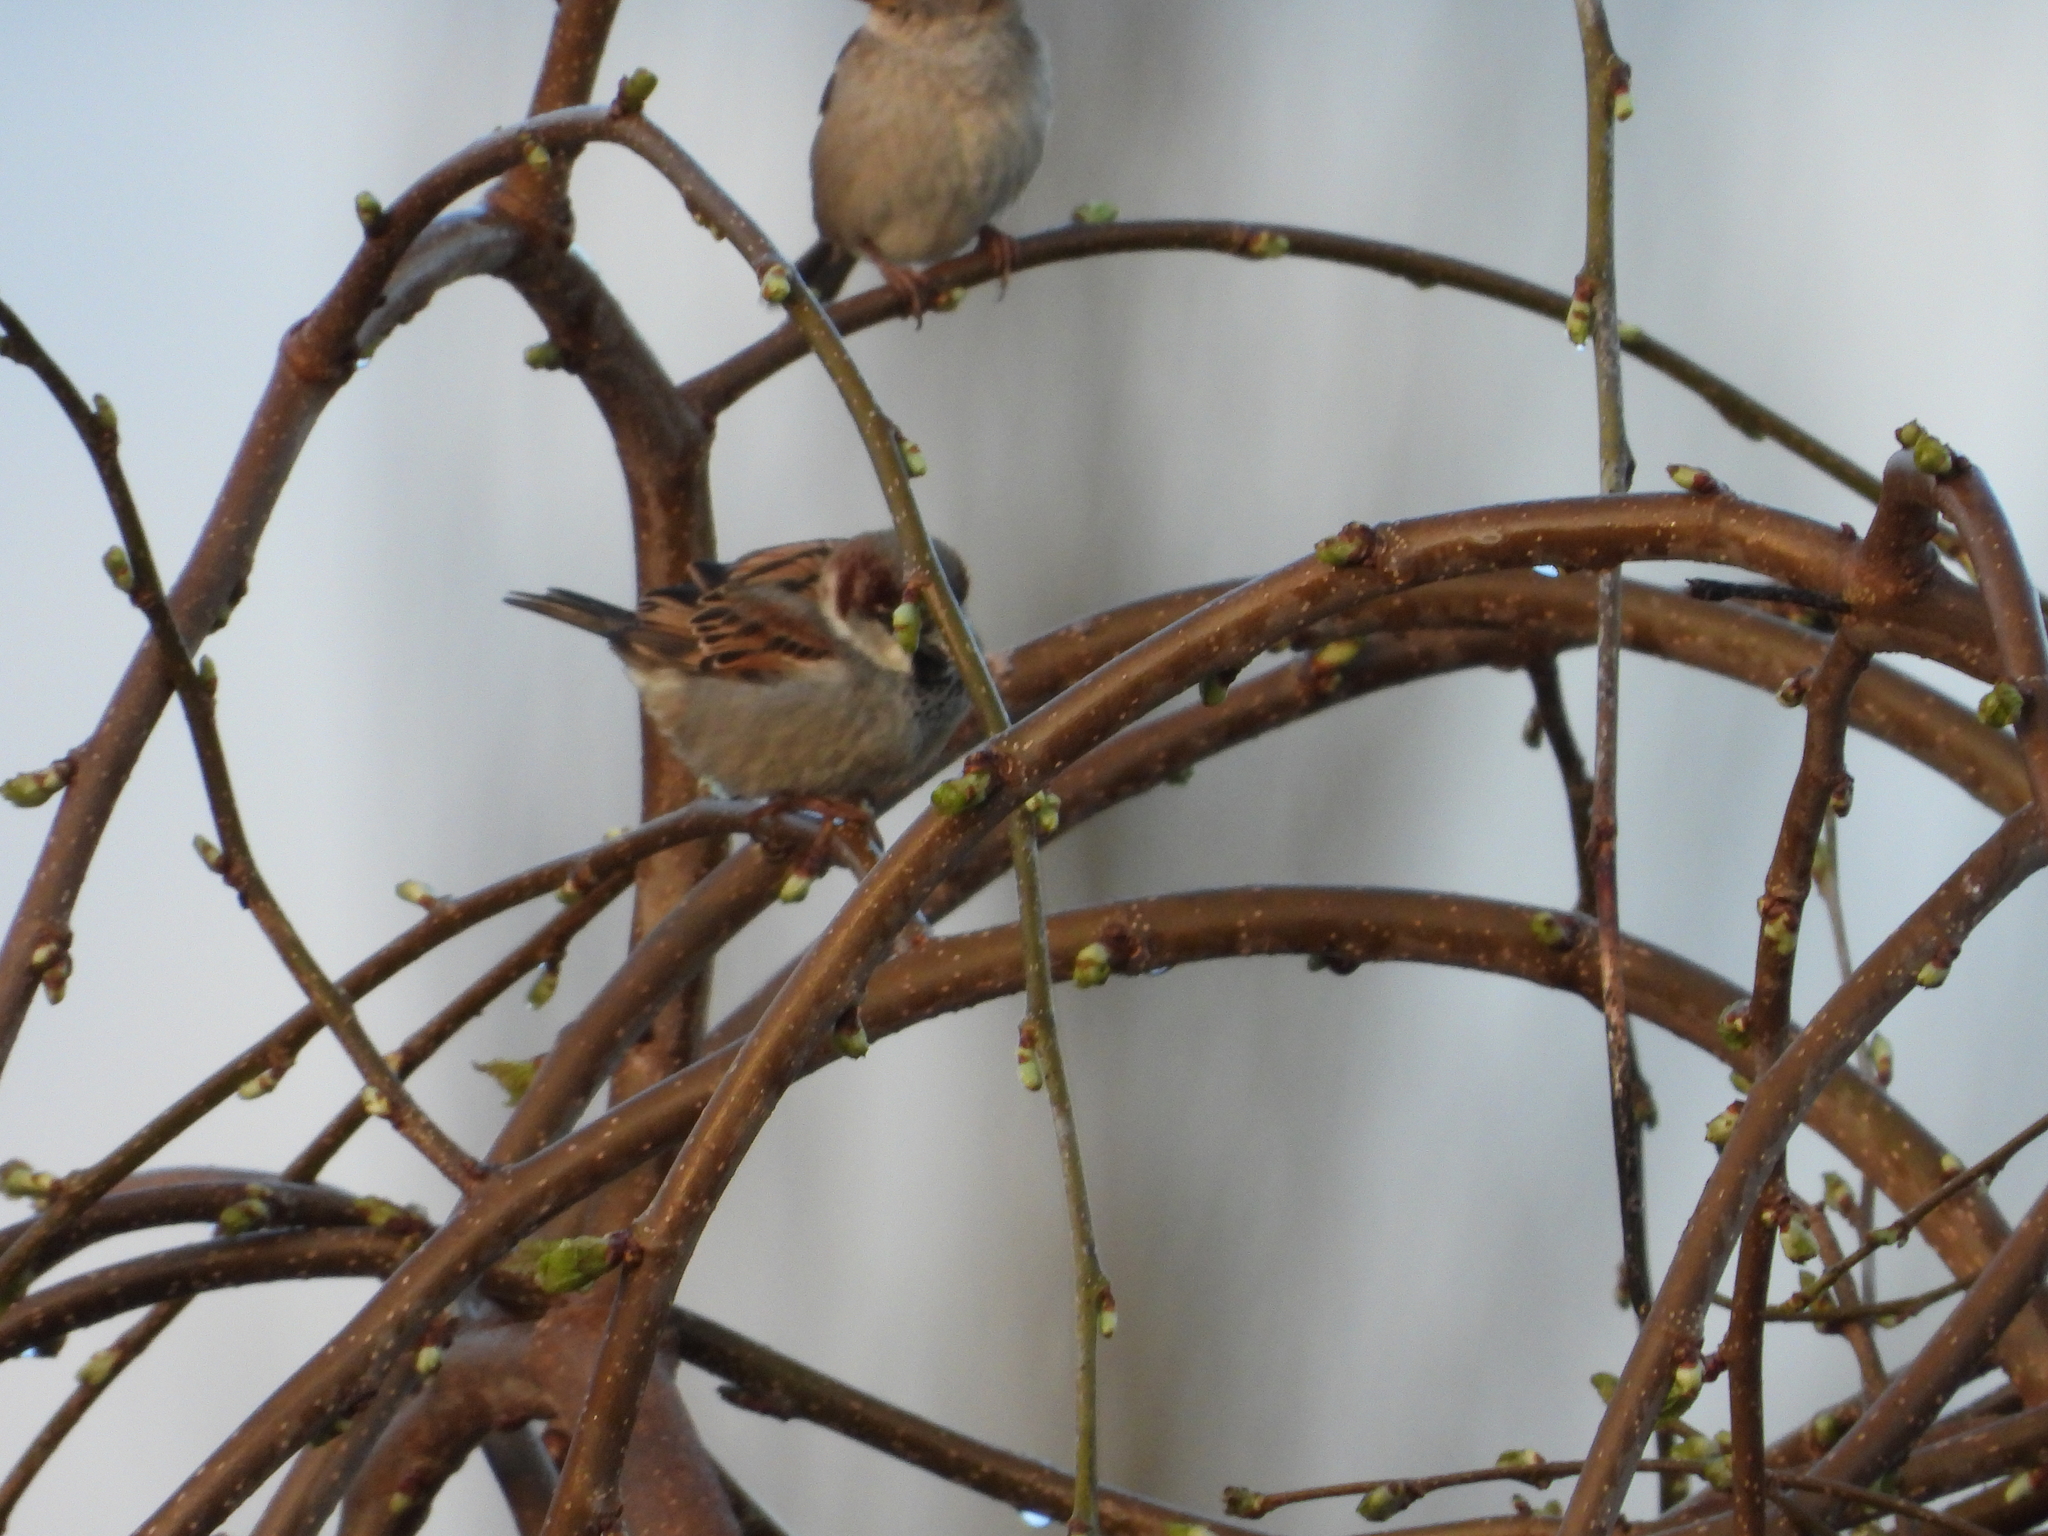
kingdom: Animalia
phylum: Chordata
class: Aves
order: Passeriformes
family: Passeridae
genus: Passer
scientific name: Passer domesticus
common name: House sparrow
